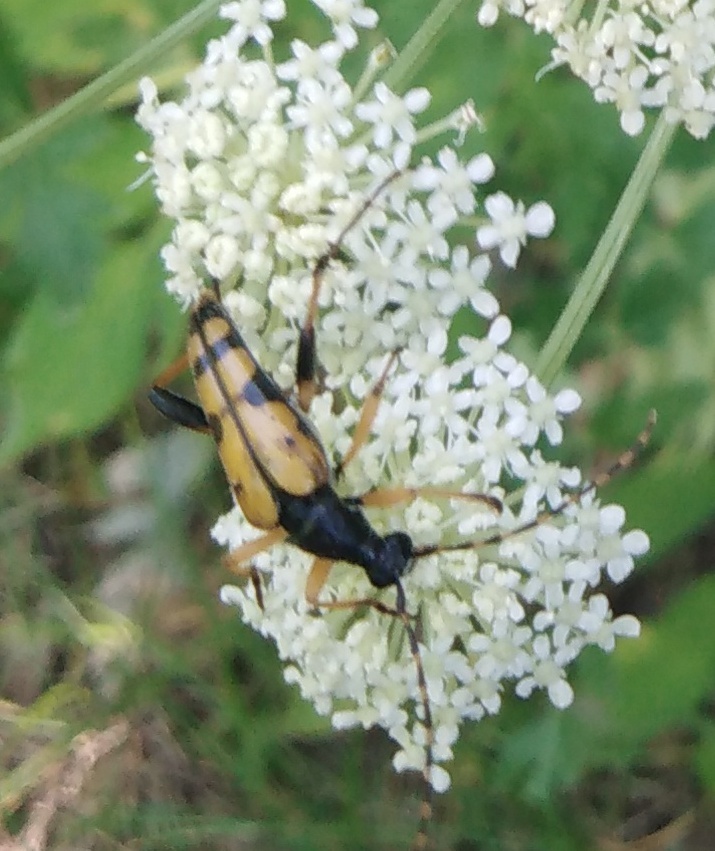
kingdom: Animalia
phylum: Arthropoda
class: Insecta
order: Coleoptera
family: Cerambycidae
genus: Rutpela
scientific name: Rutpela maculata
